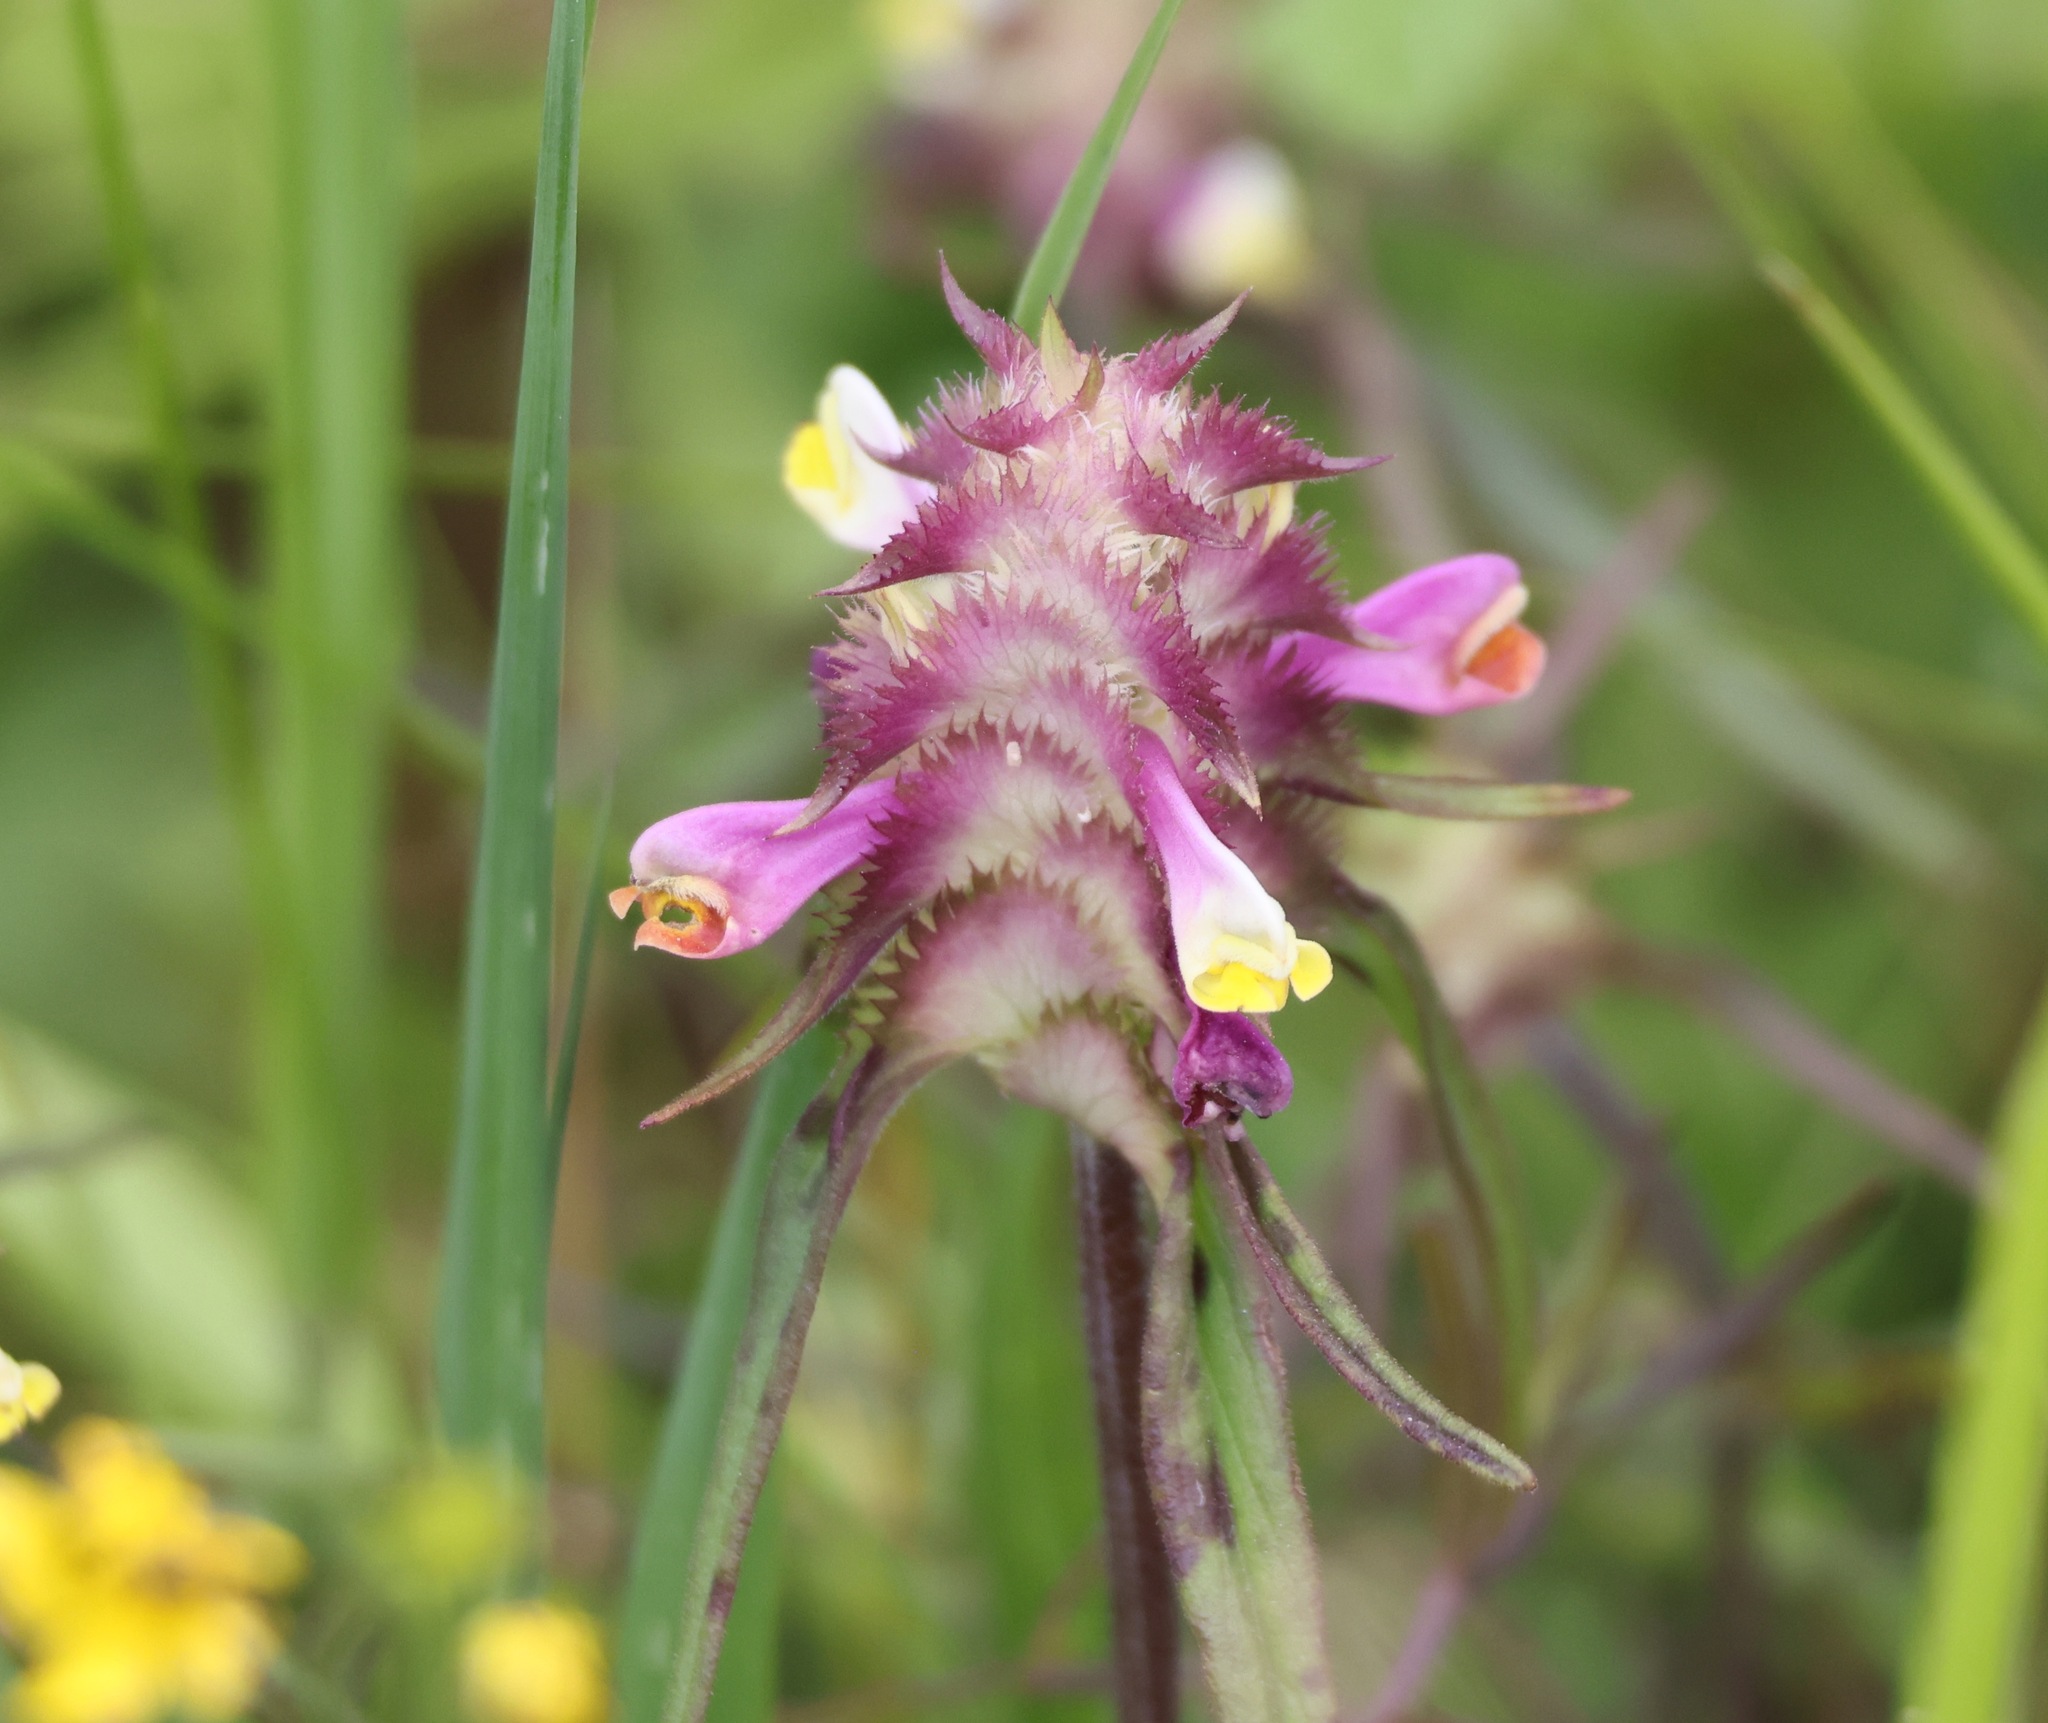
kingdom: Plantae
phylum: Tracheophyta
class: Magnoliopsida
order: Lamiales
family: Orobanchaceae
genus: Melampyrum
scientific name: Melampyrum cristatum
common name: Crested cow-wheat
